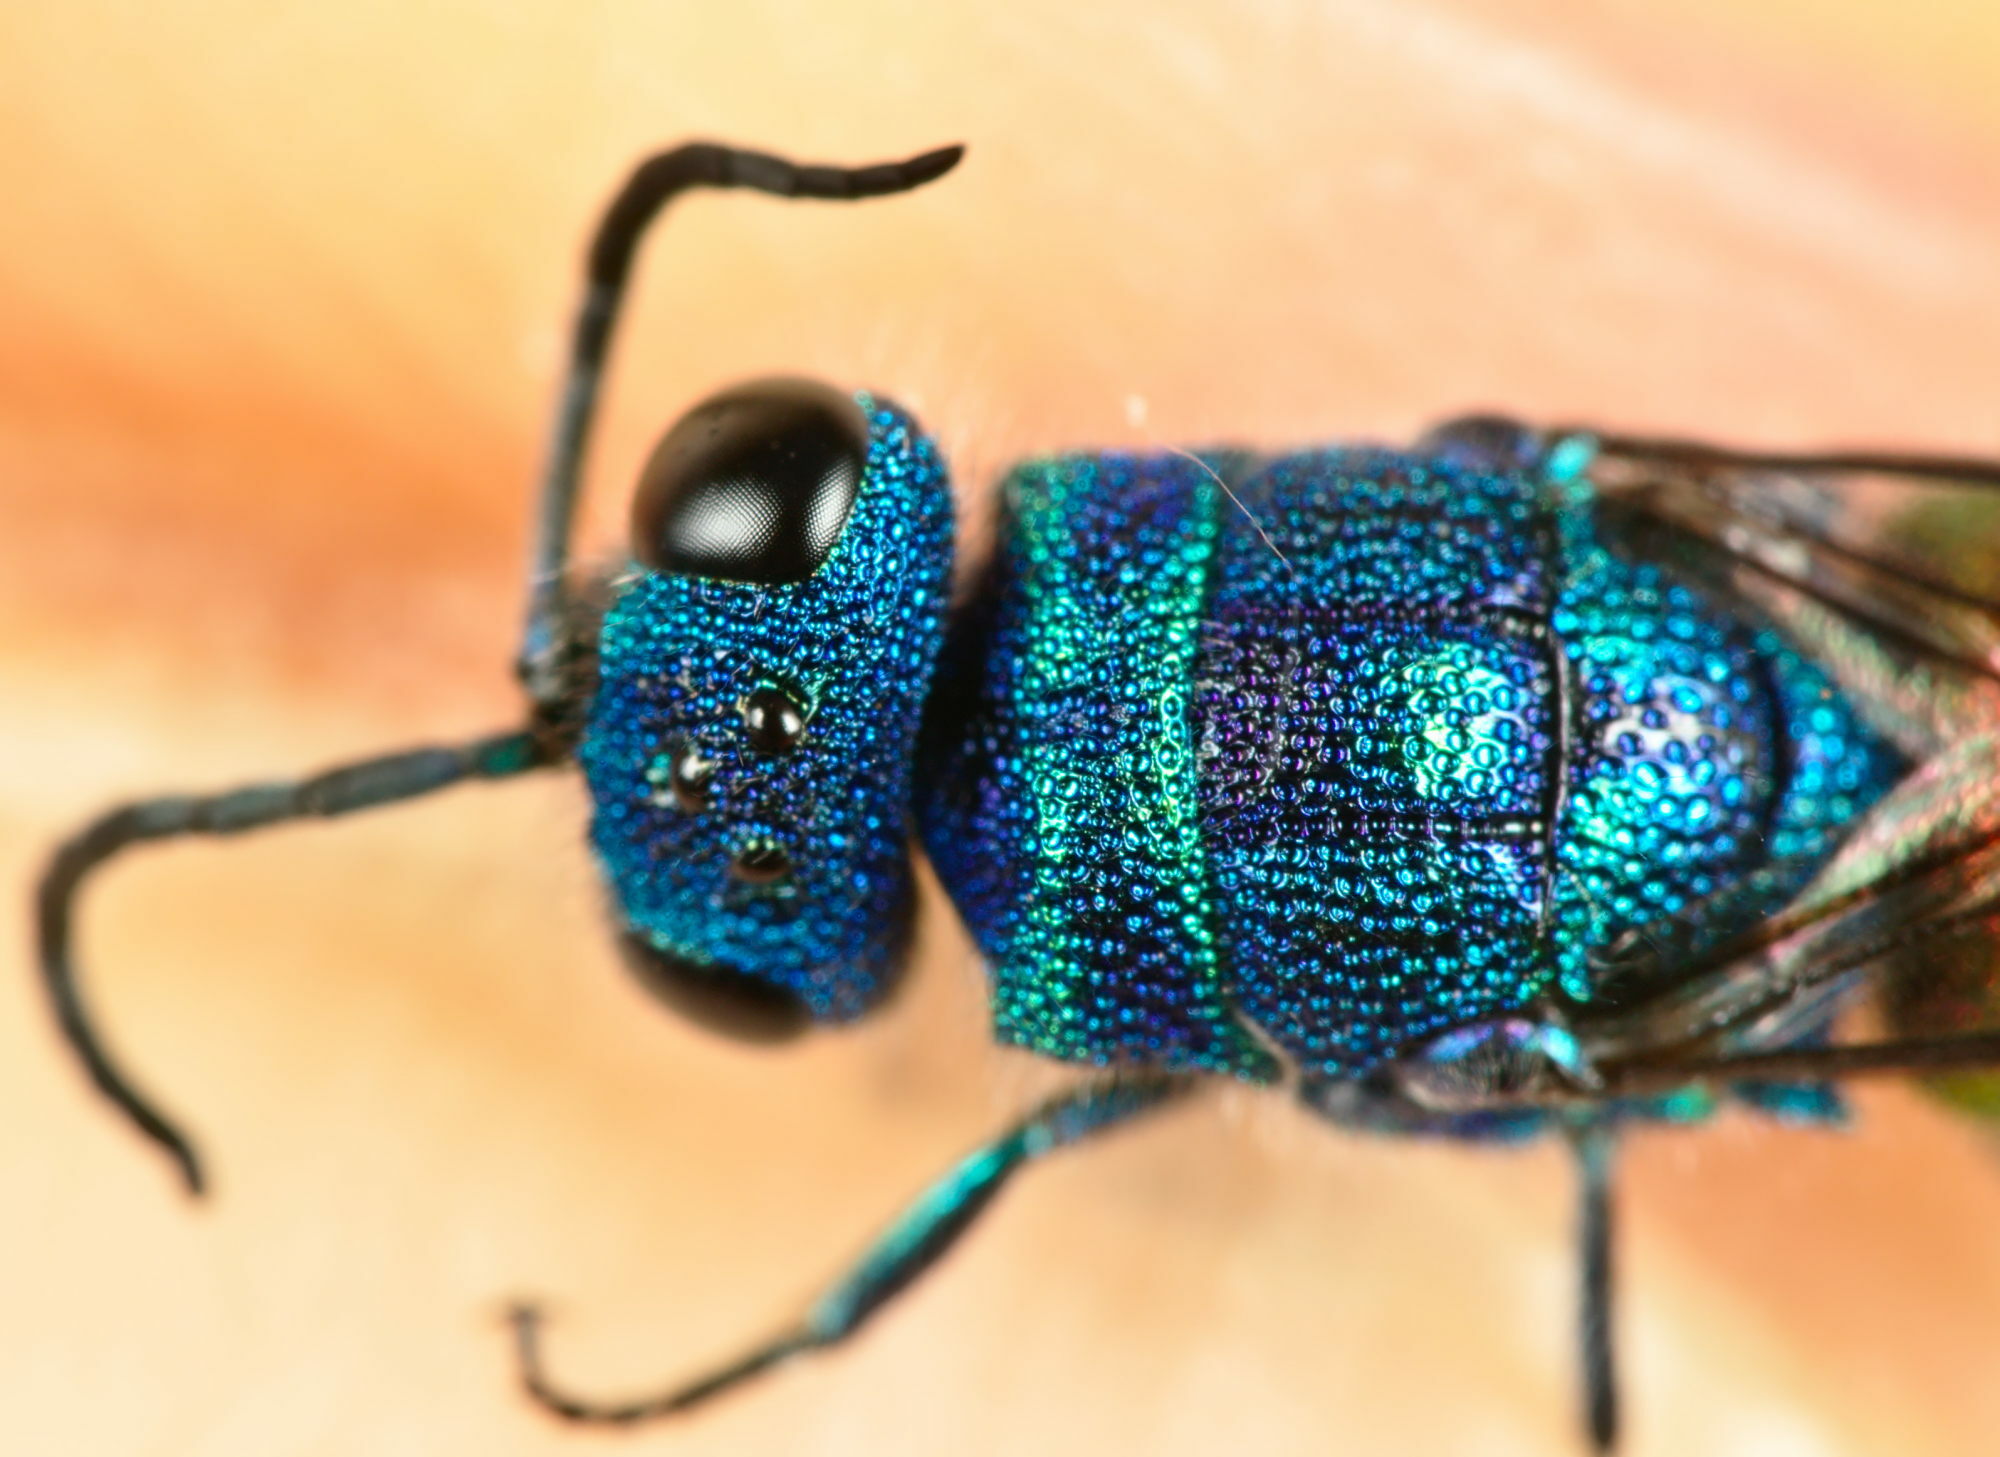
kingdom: Animalia
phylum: Arthropoda
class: Insecta
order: Hymenoptera
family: Chrysididae
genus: Chrysis
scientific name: Chrysis terminata
